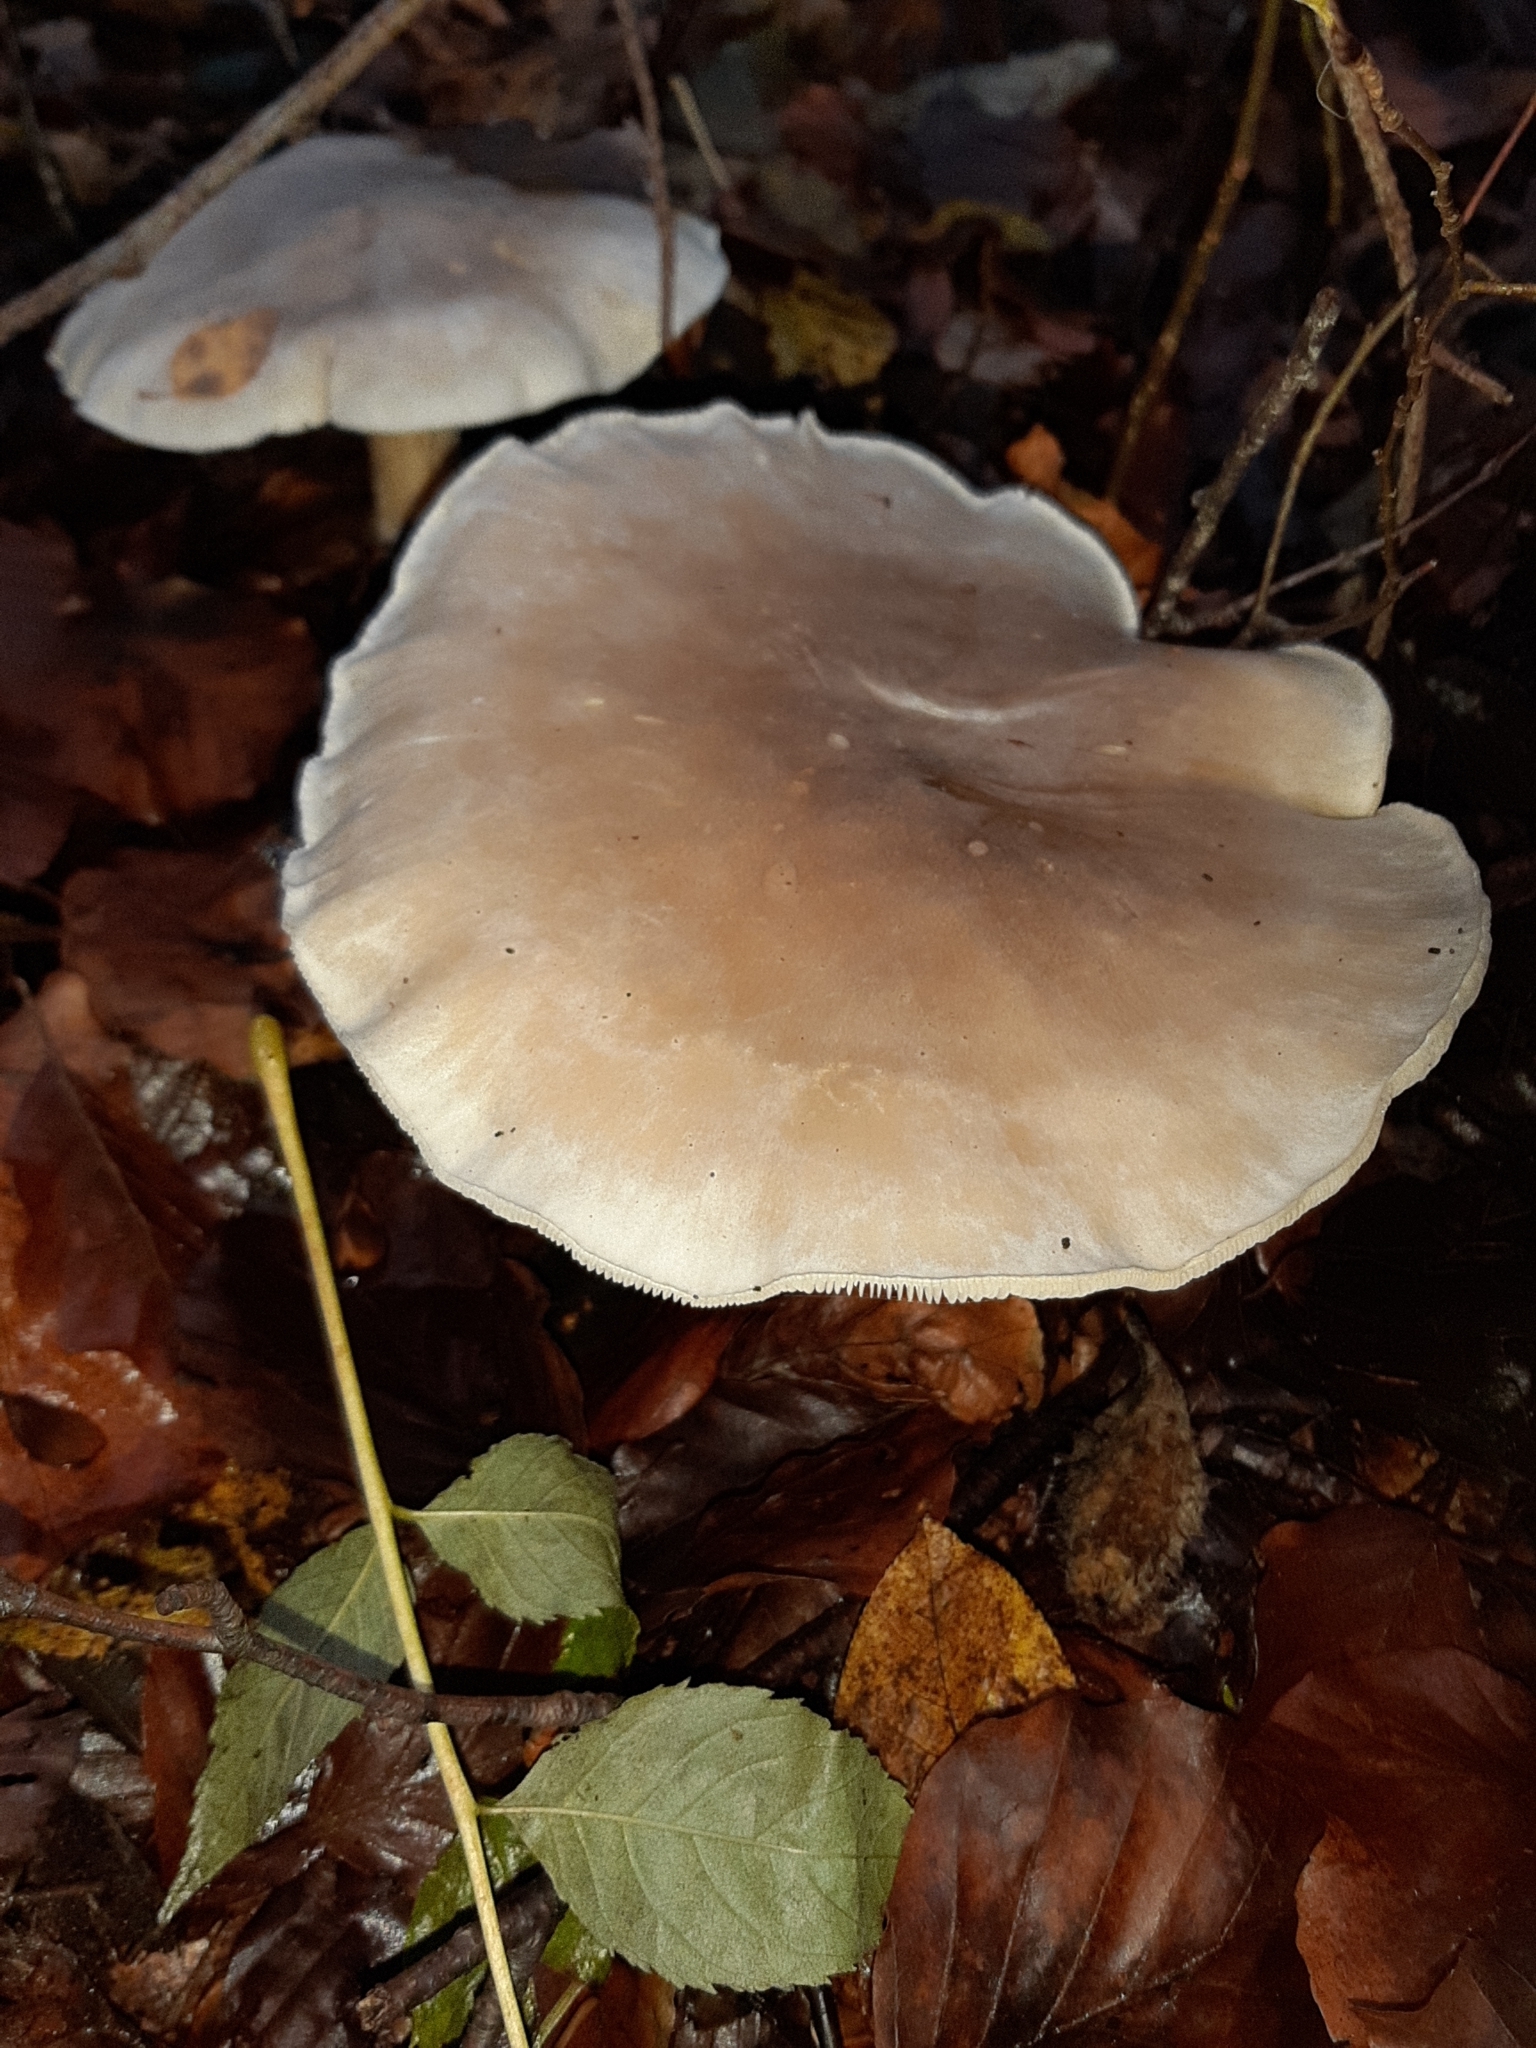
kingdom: Fungi
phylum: Basidiomycota
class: Agaricomycetes
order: Agaricales
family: Tricholomataceae
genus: Clitocybe
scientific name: Clitocybe nebularis
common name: Clouded agaric
